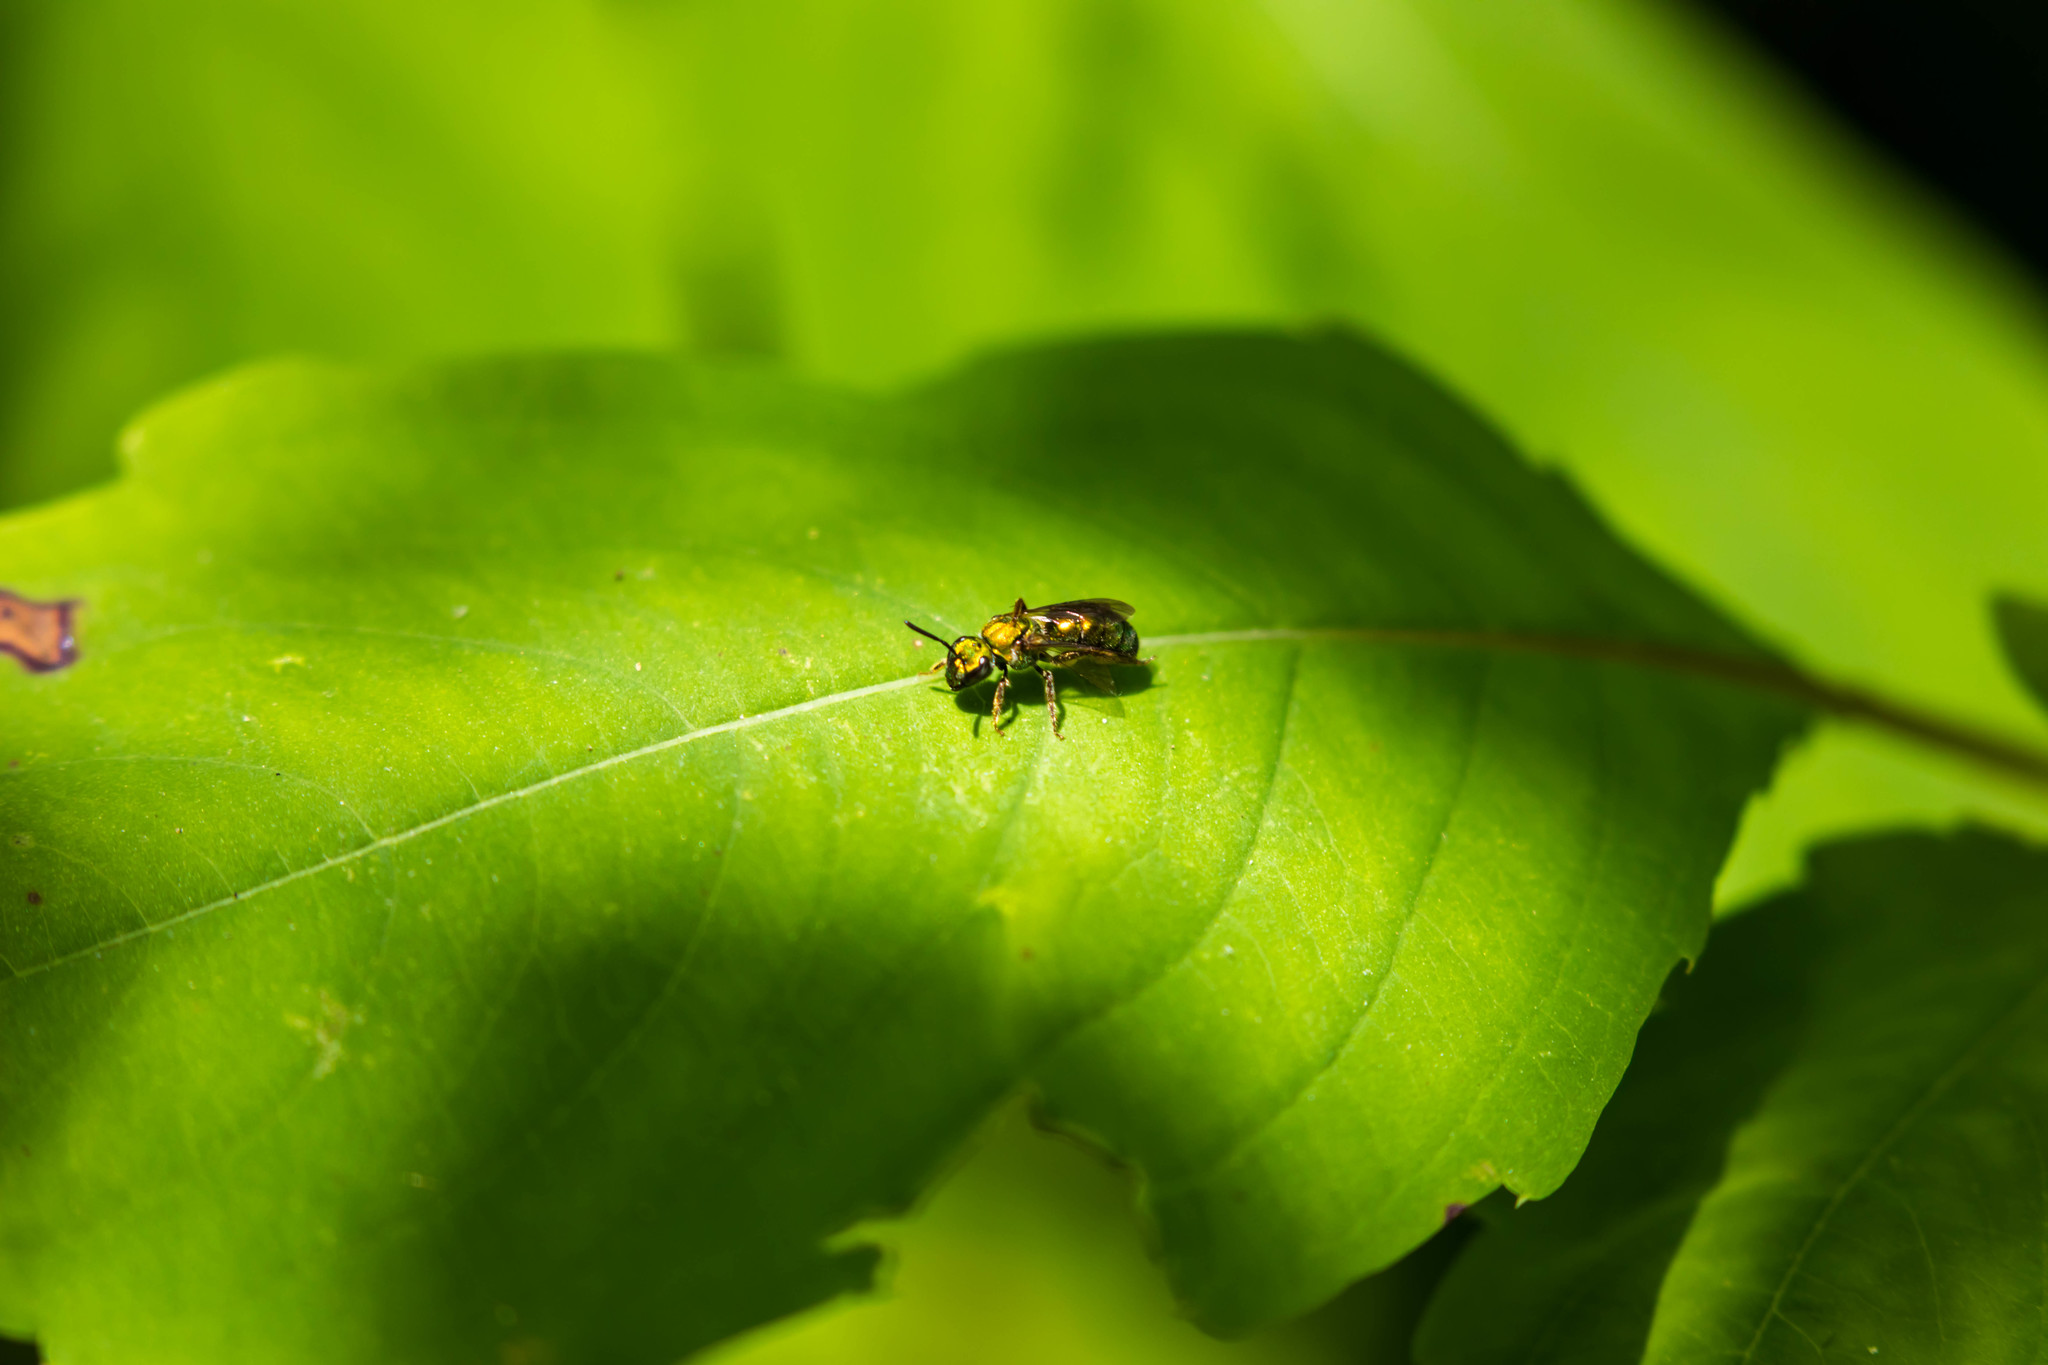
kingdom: Animalia
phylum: Arthropoda
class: Insecta
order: Hymenoptera
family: Halictidae
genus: Augochlora
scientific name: Augochlora pura
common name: Pure green sweat bee
